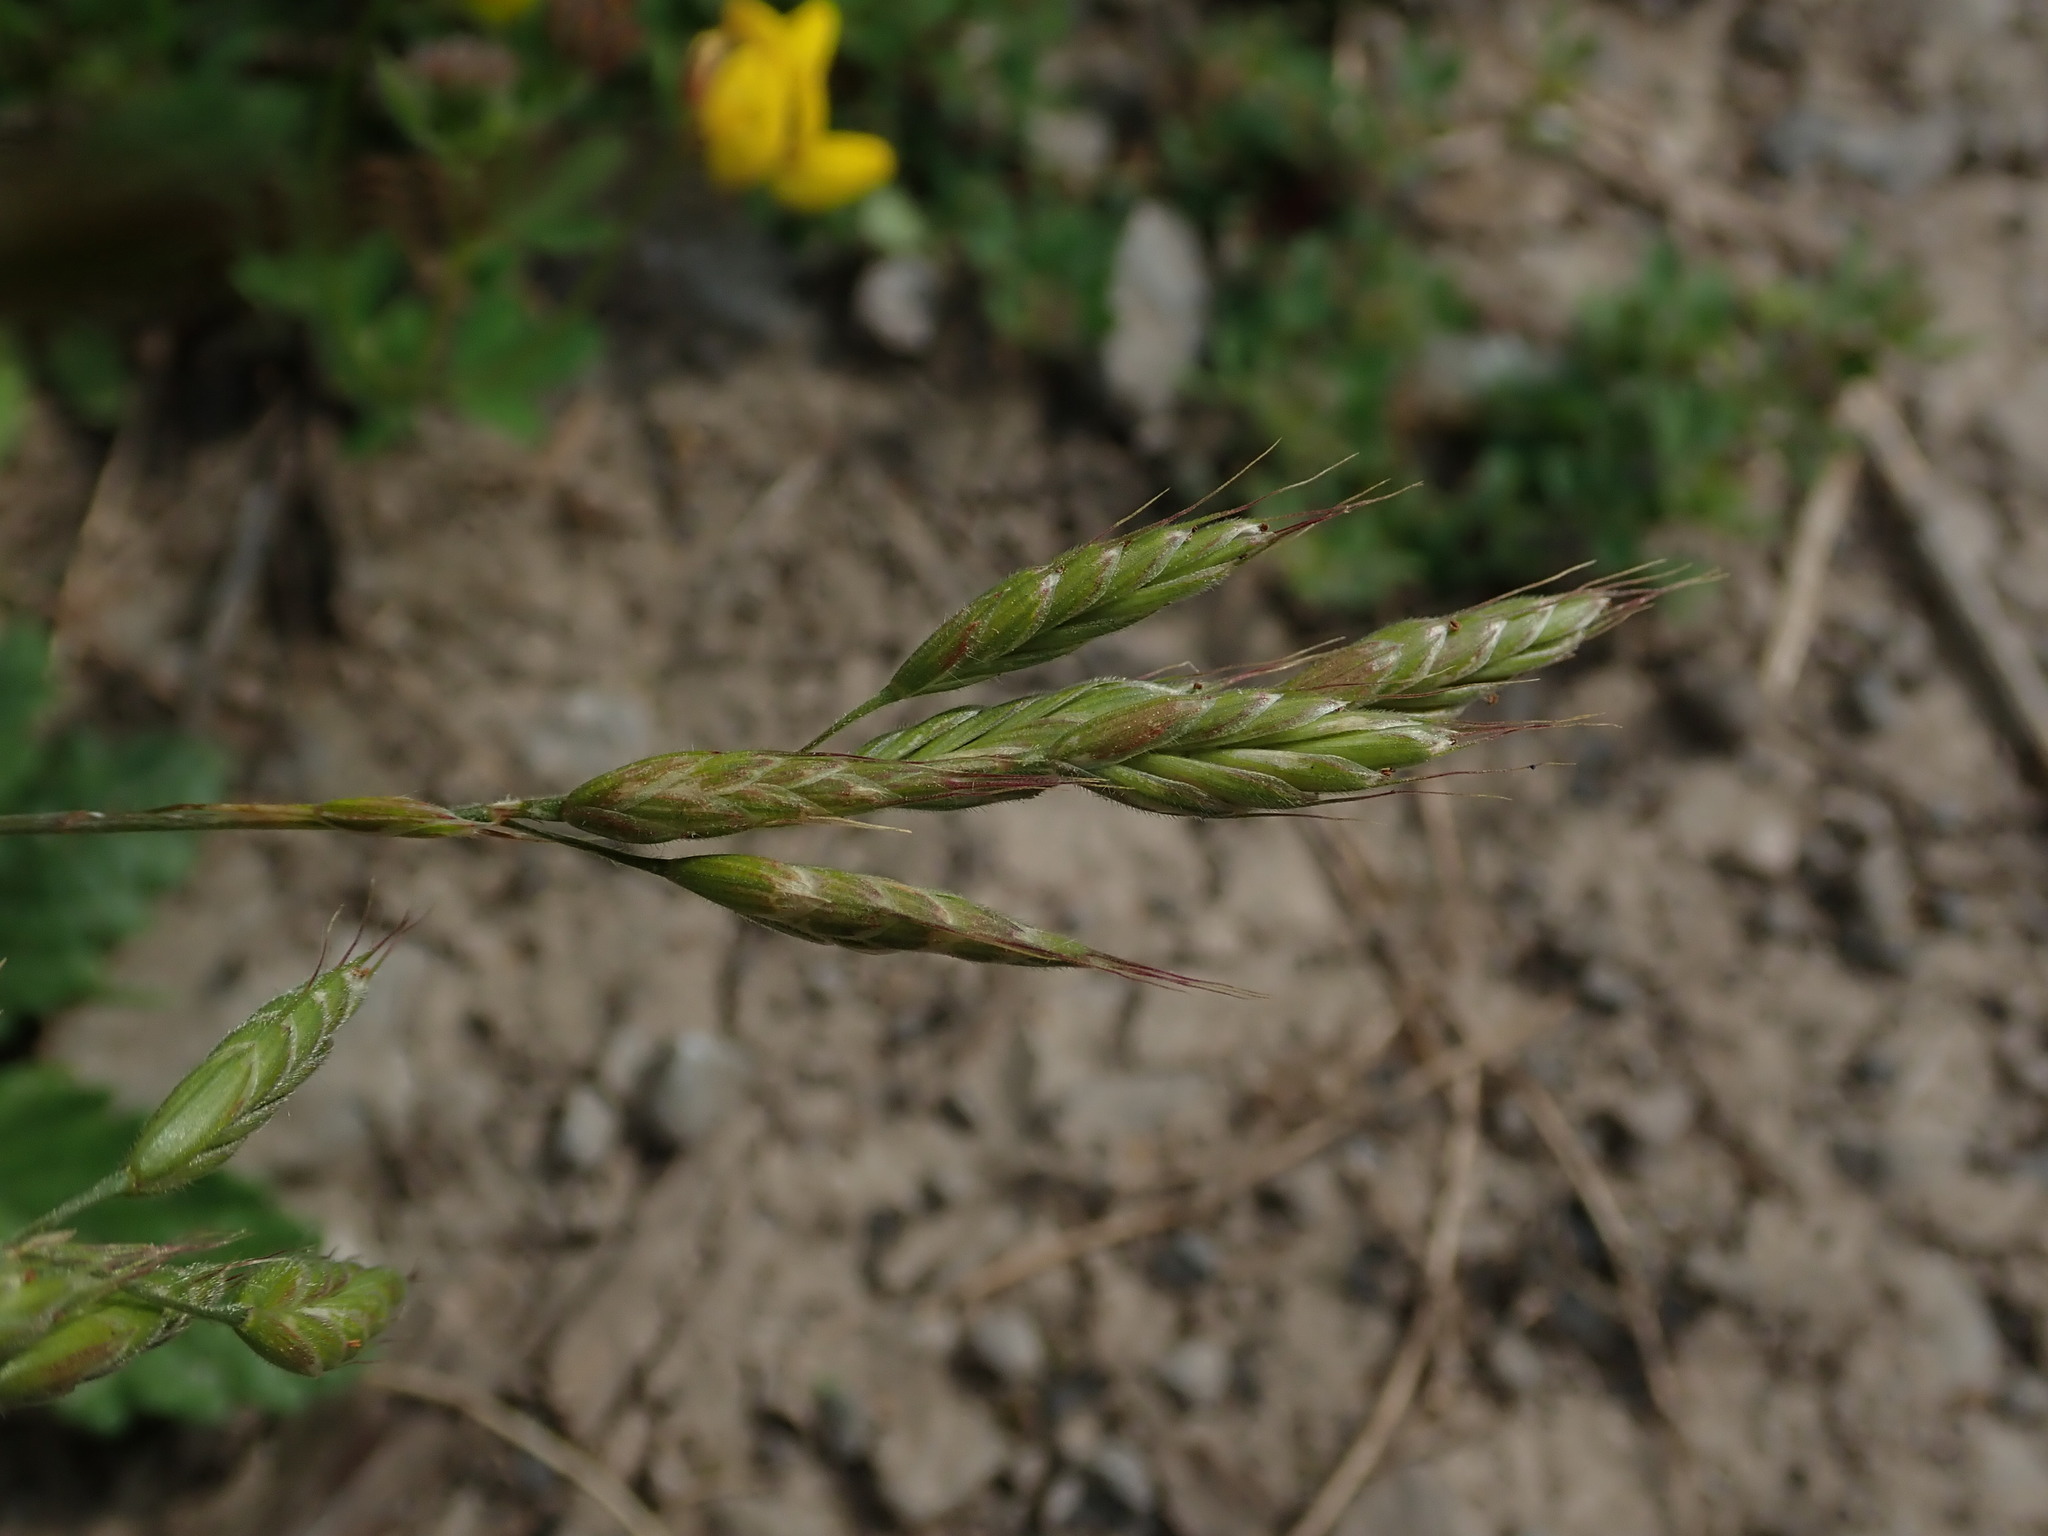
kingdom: Plantae
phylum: Tracheophyta
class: Liliopsida
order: Poales
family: Poaceae
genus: Bromus
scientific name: Bromus hordeaceus
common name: Soft brome
